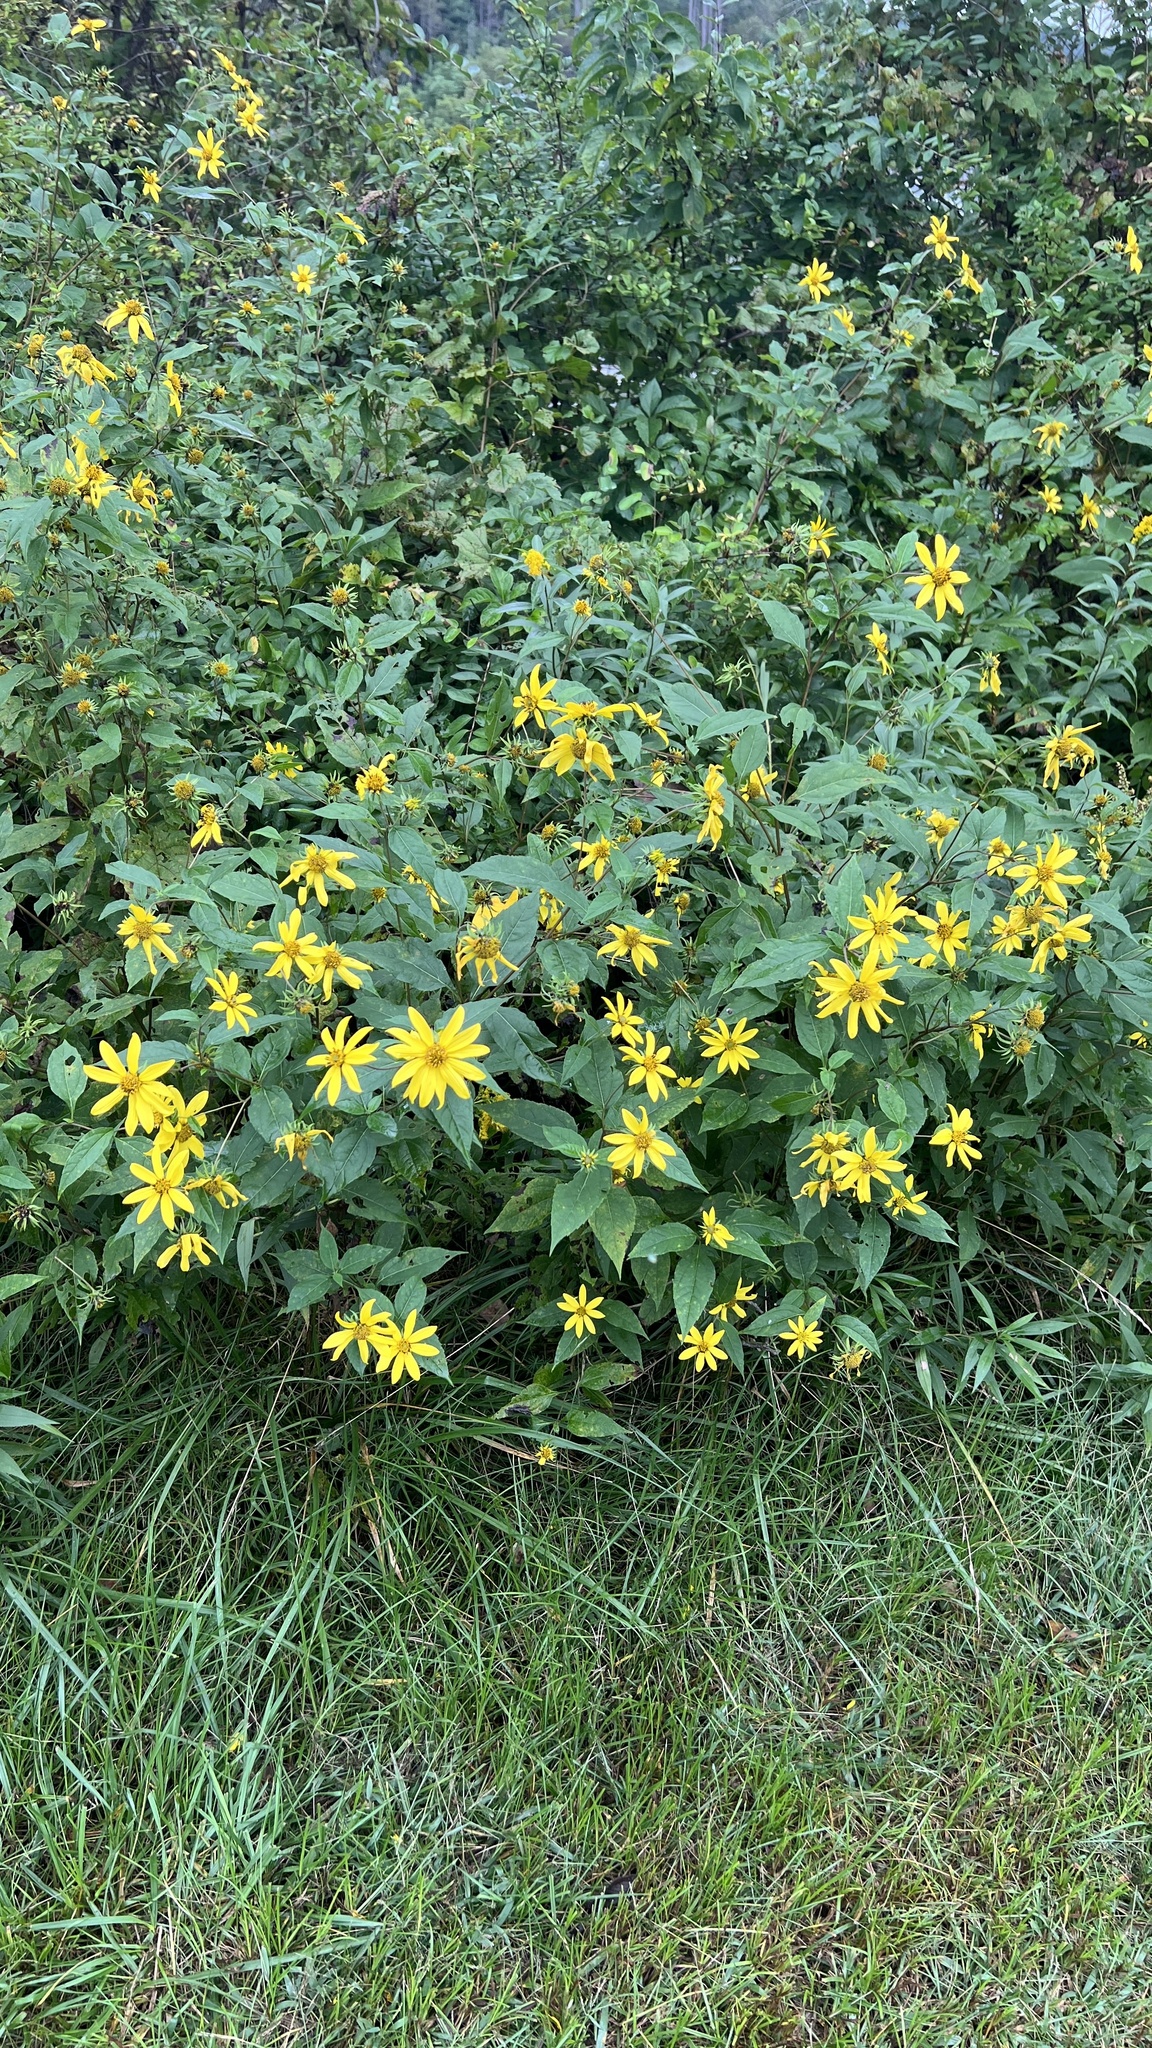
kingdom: Plantae
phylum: Tracheophyta
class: Magnoliopsida
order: Asterales
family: Asteraceae
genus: Helianthus
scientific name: Helianthus decapetalus
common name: Thin-leaved sunflower
